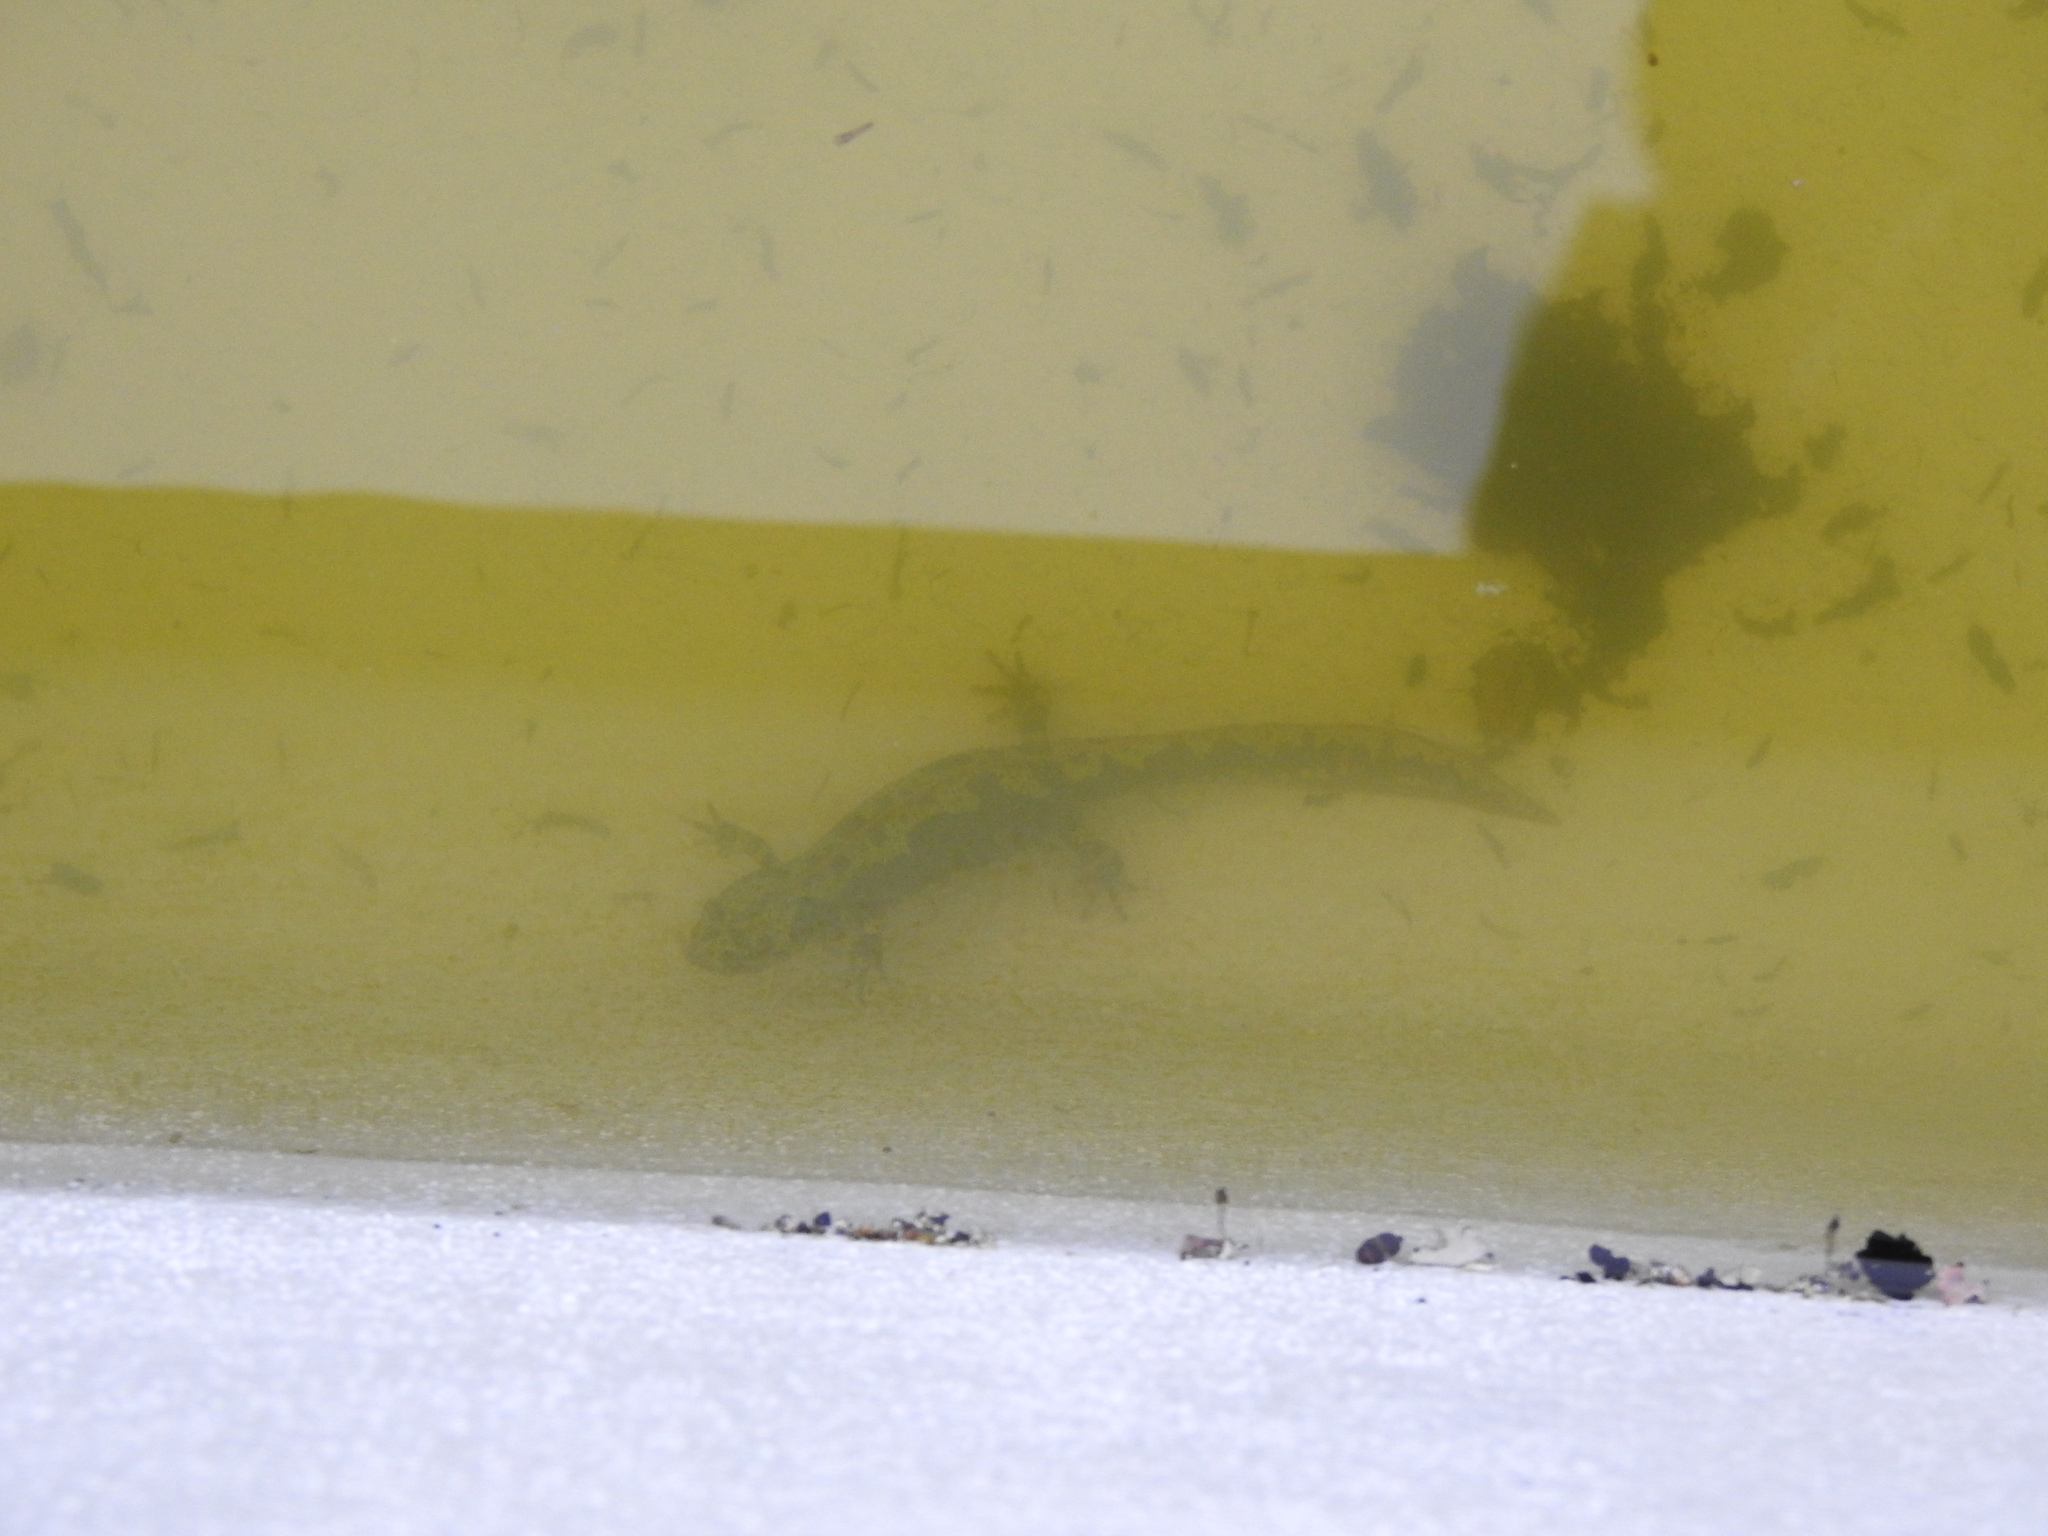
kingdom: Animalia
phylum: Chordata
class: Amphibia
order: Caudata
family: Salamandridae
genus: Triturus
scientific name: Triturus marmoratus
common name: Marbled newt
